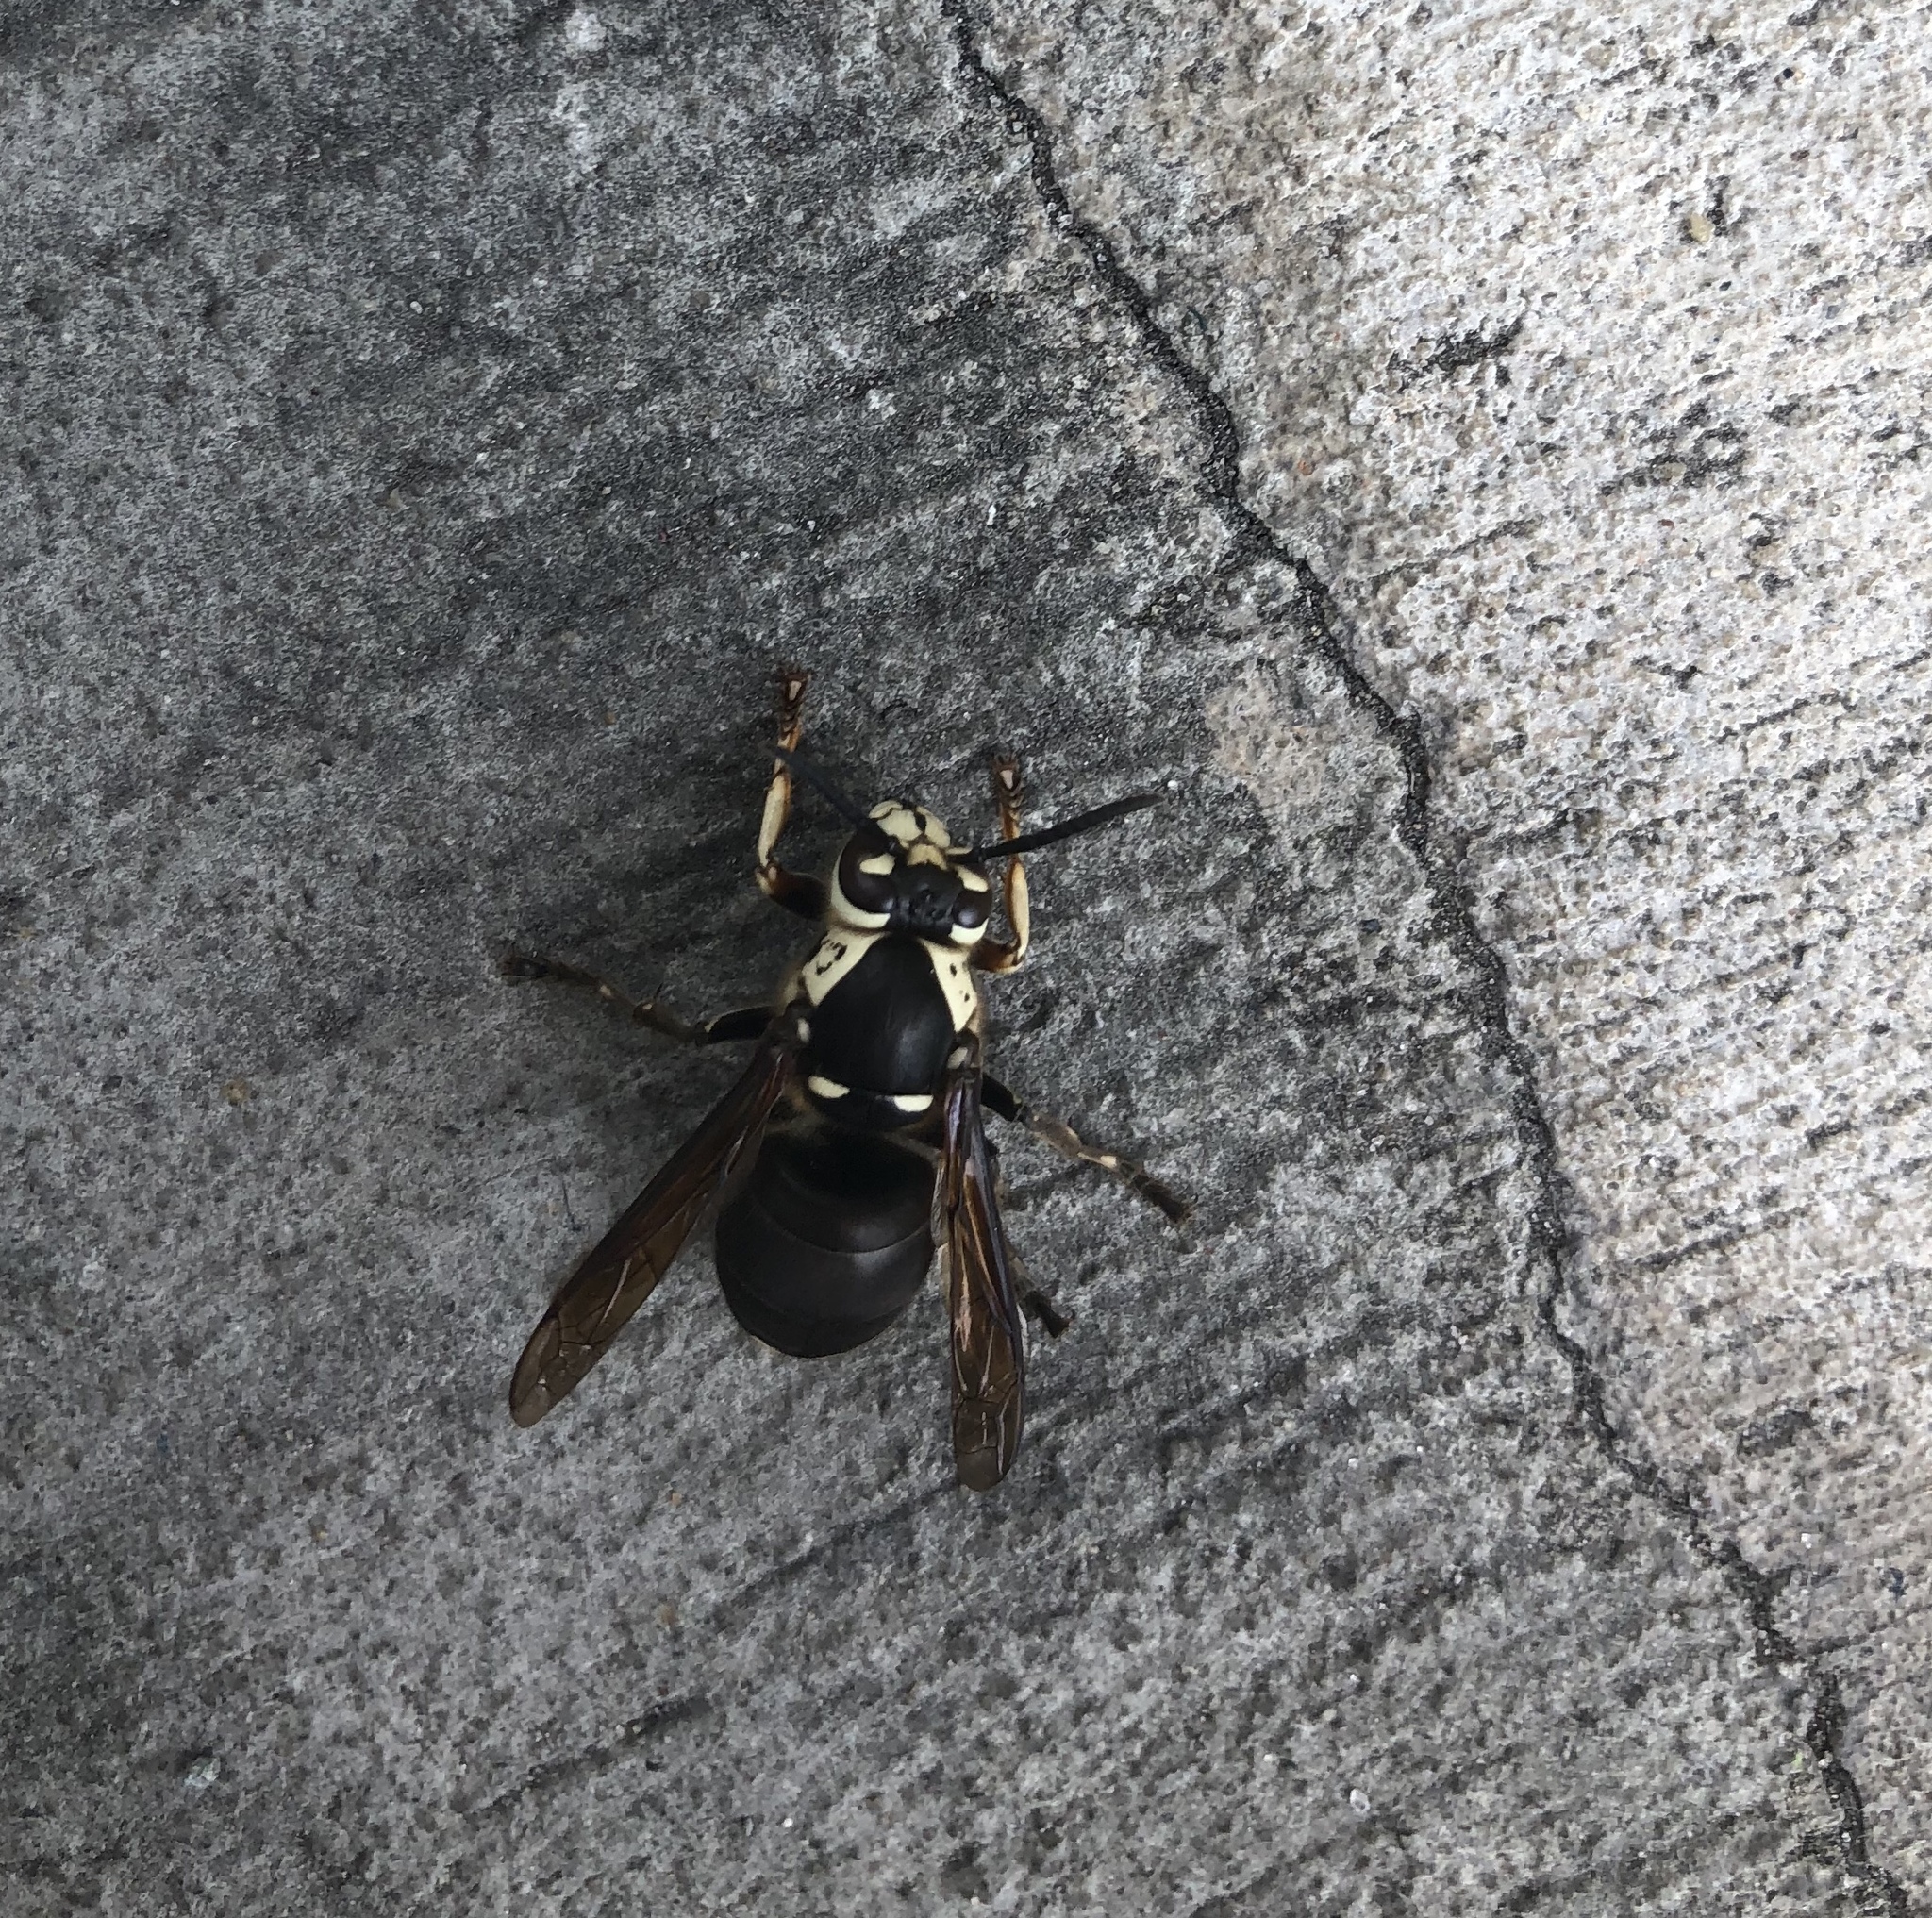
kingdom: Animalia
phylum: Arthropoda
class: Insecta
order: Hymenoptera
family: Vespidae
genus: Dolichovespula
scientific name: Dolichovespula maculata
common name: Bald-faced hornet
